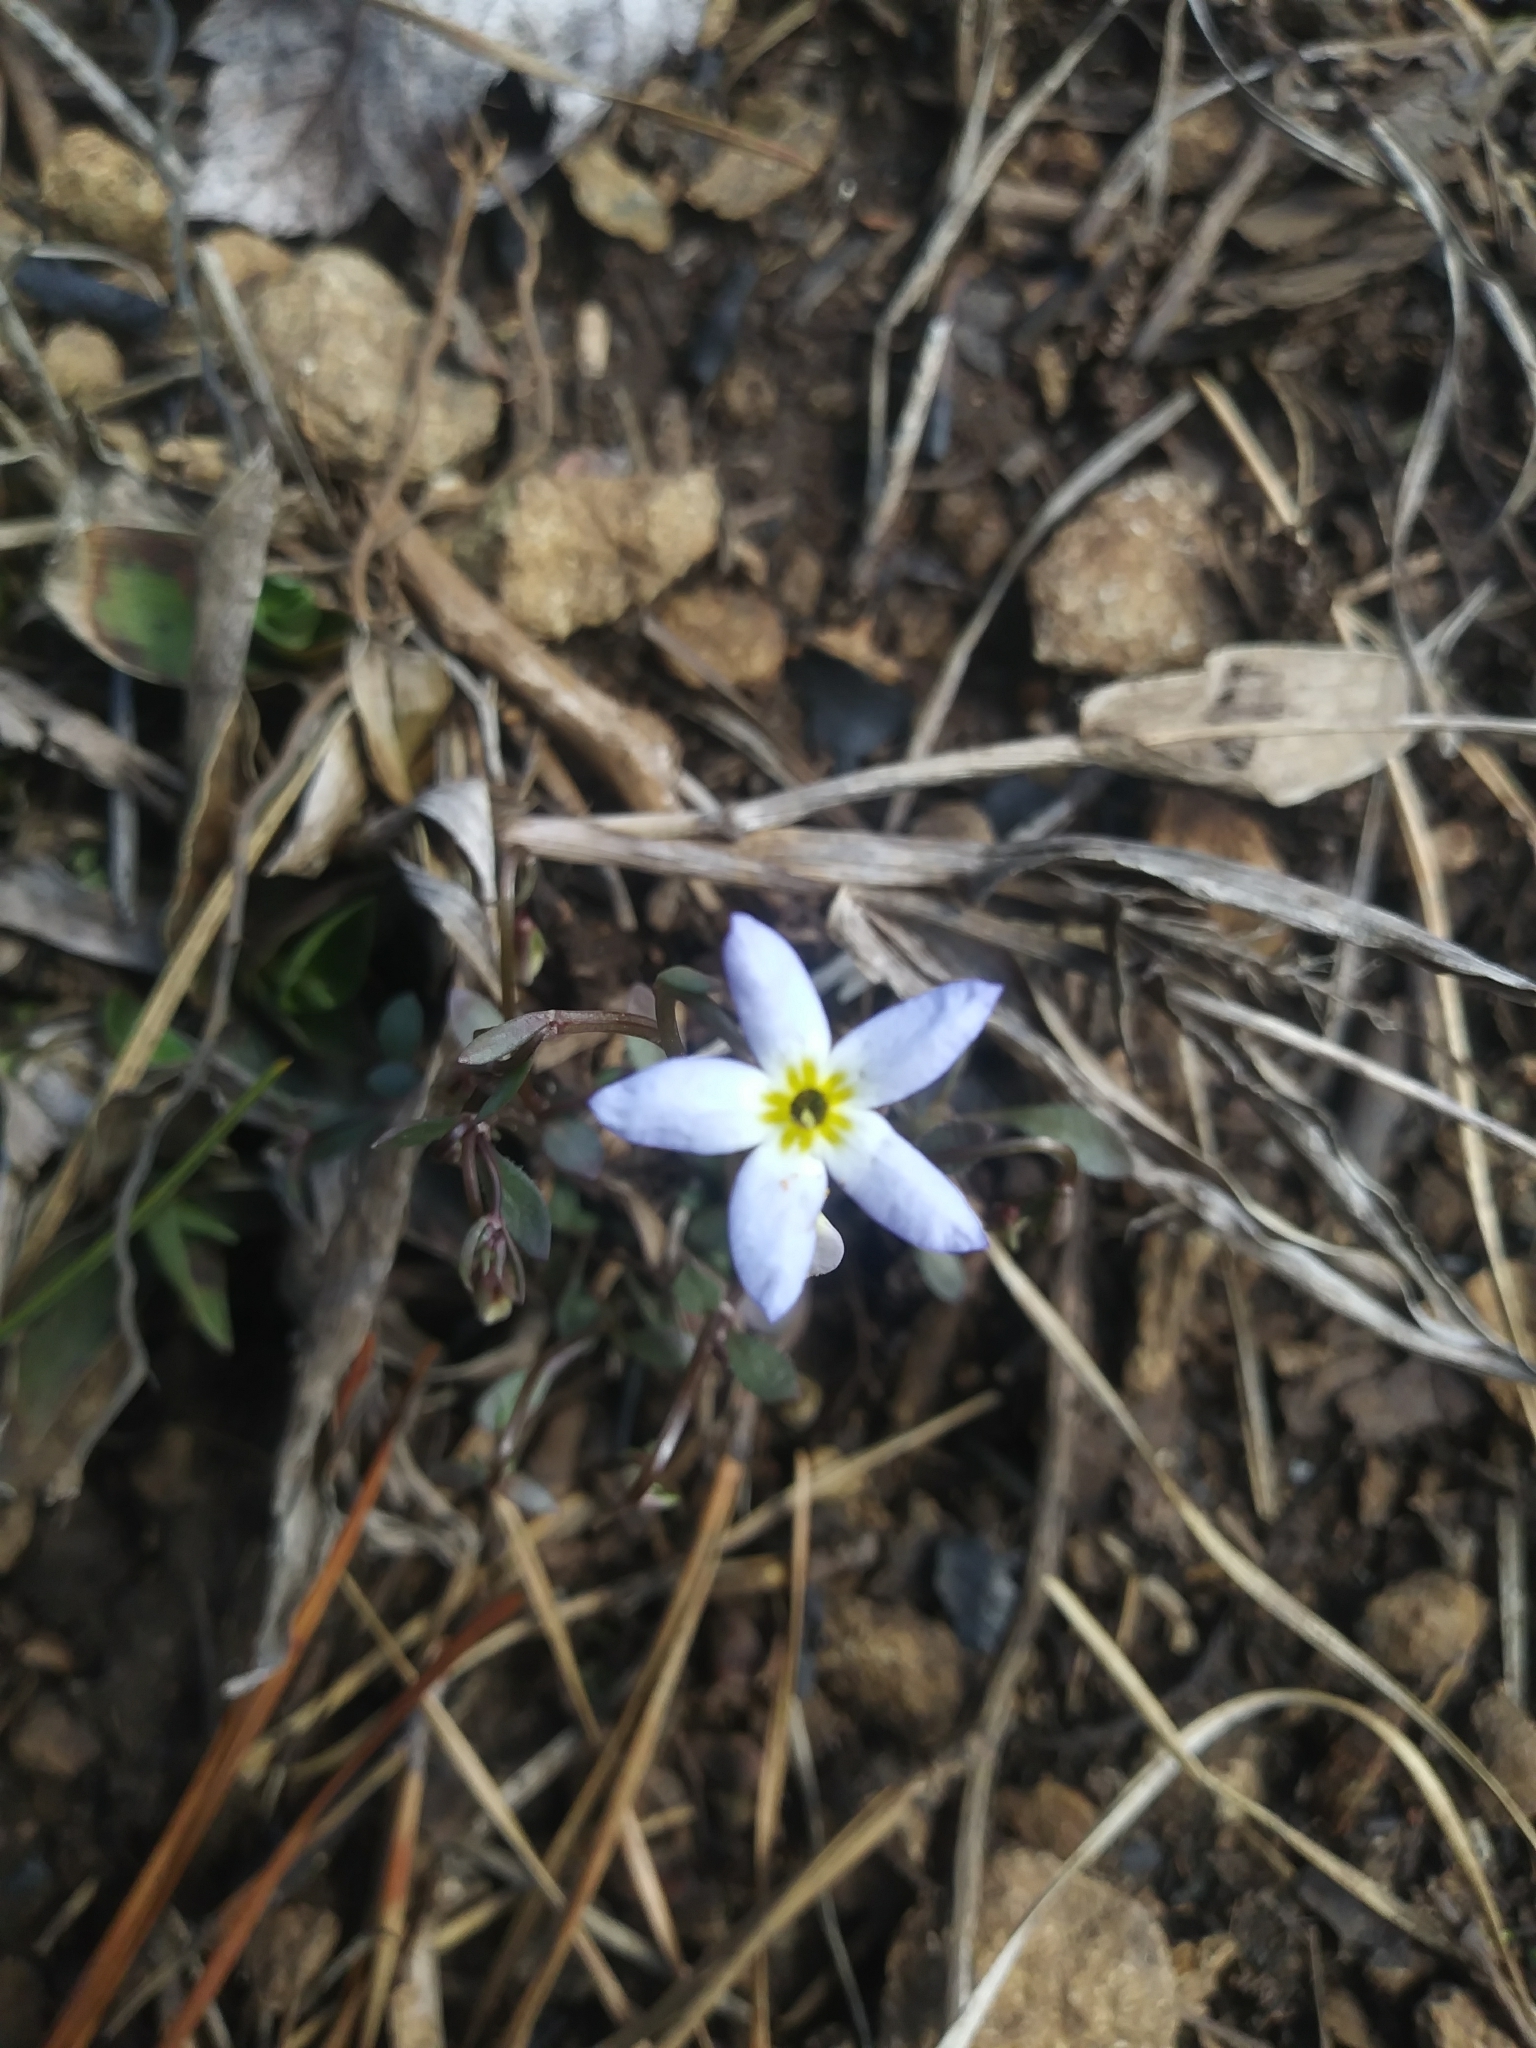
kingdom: Plantae
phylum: Tracheophyta
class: Magnoliopsida
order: Gentianales
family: Rubiaceae
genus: Houstonia
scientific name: Houstonia caerulea
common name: Bluets
